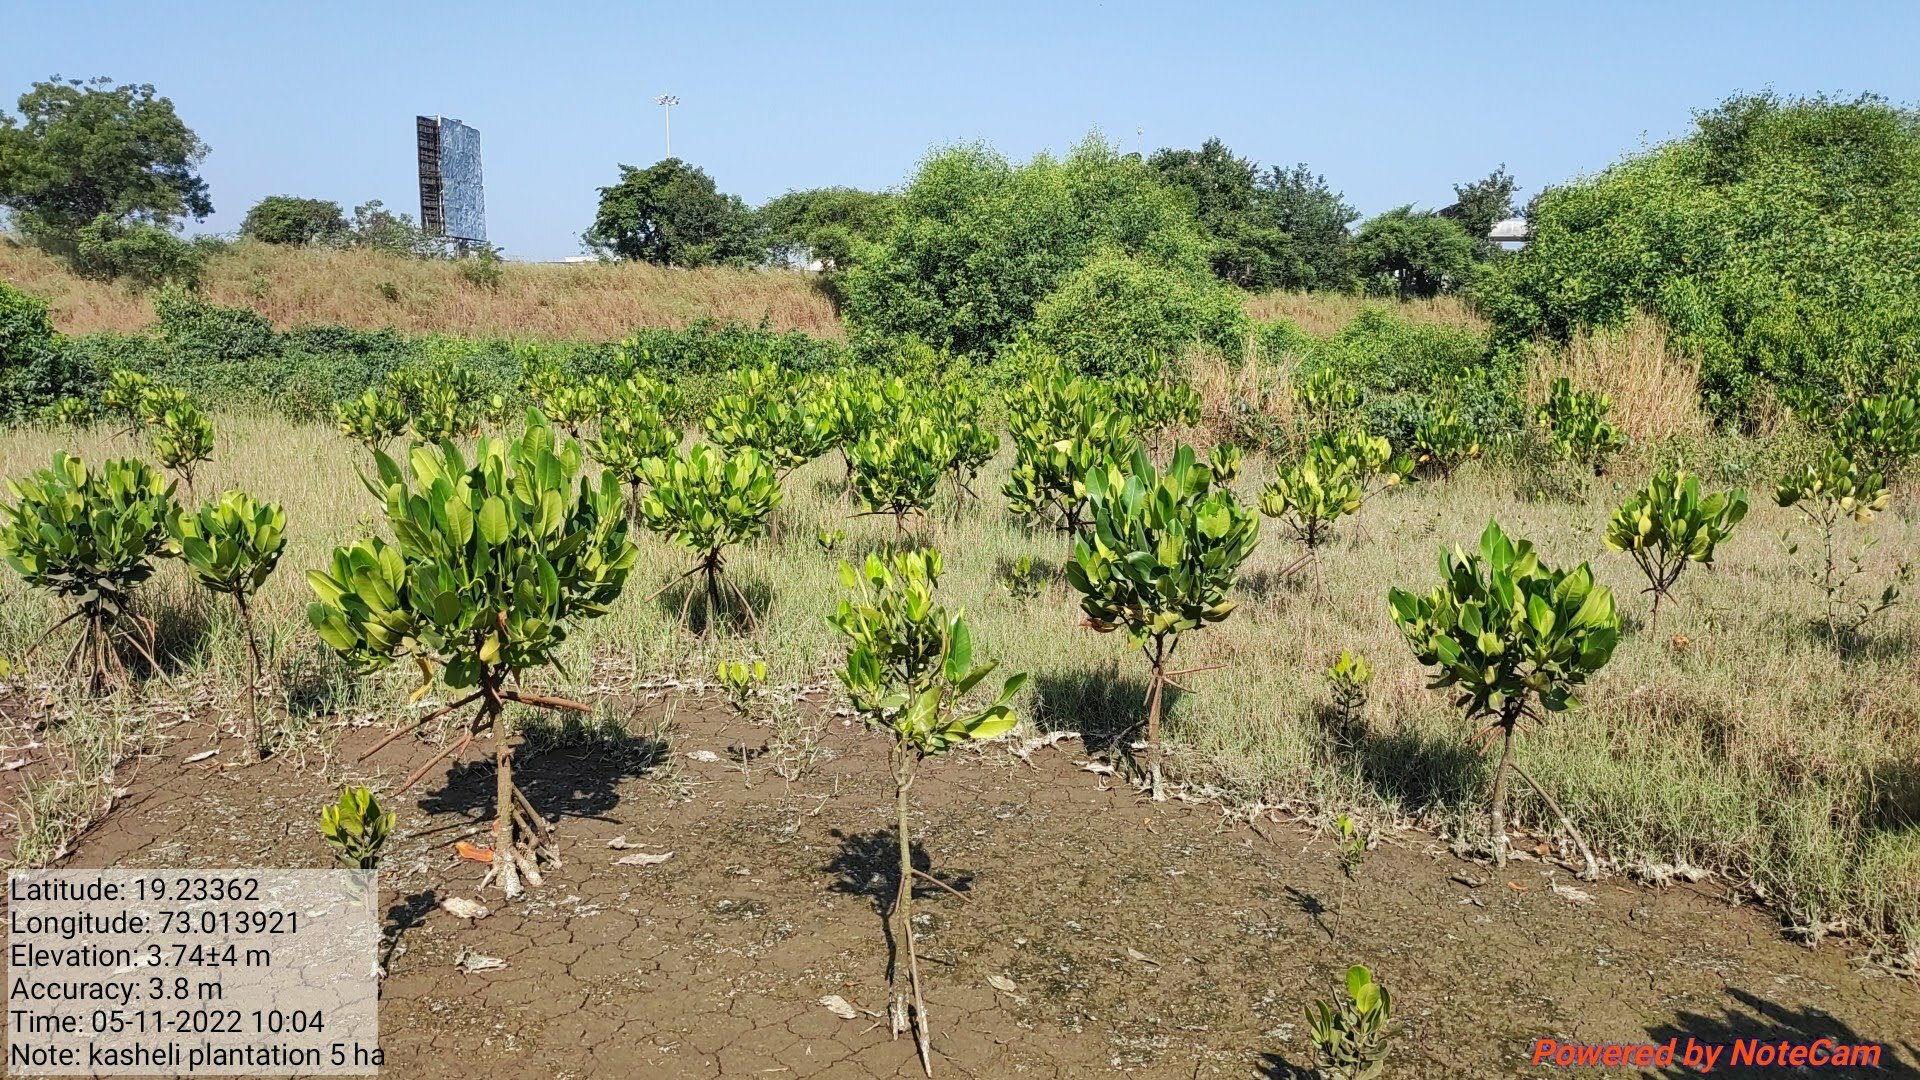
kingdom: Plantae
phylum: Tracheophyta
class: Magnoliopsida
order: Malpighiales
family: Rhizophoraceae
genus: Rhizophora
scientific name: Rhizophora mucronata
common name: Loop-root mangrove
